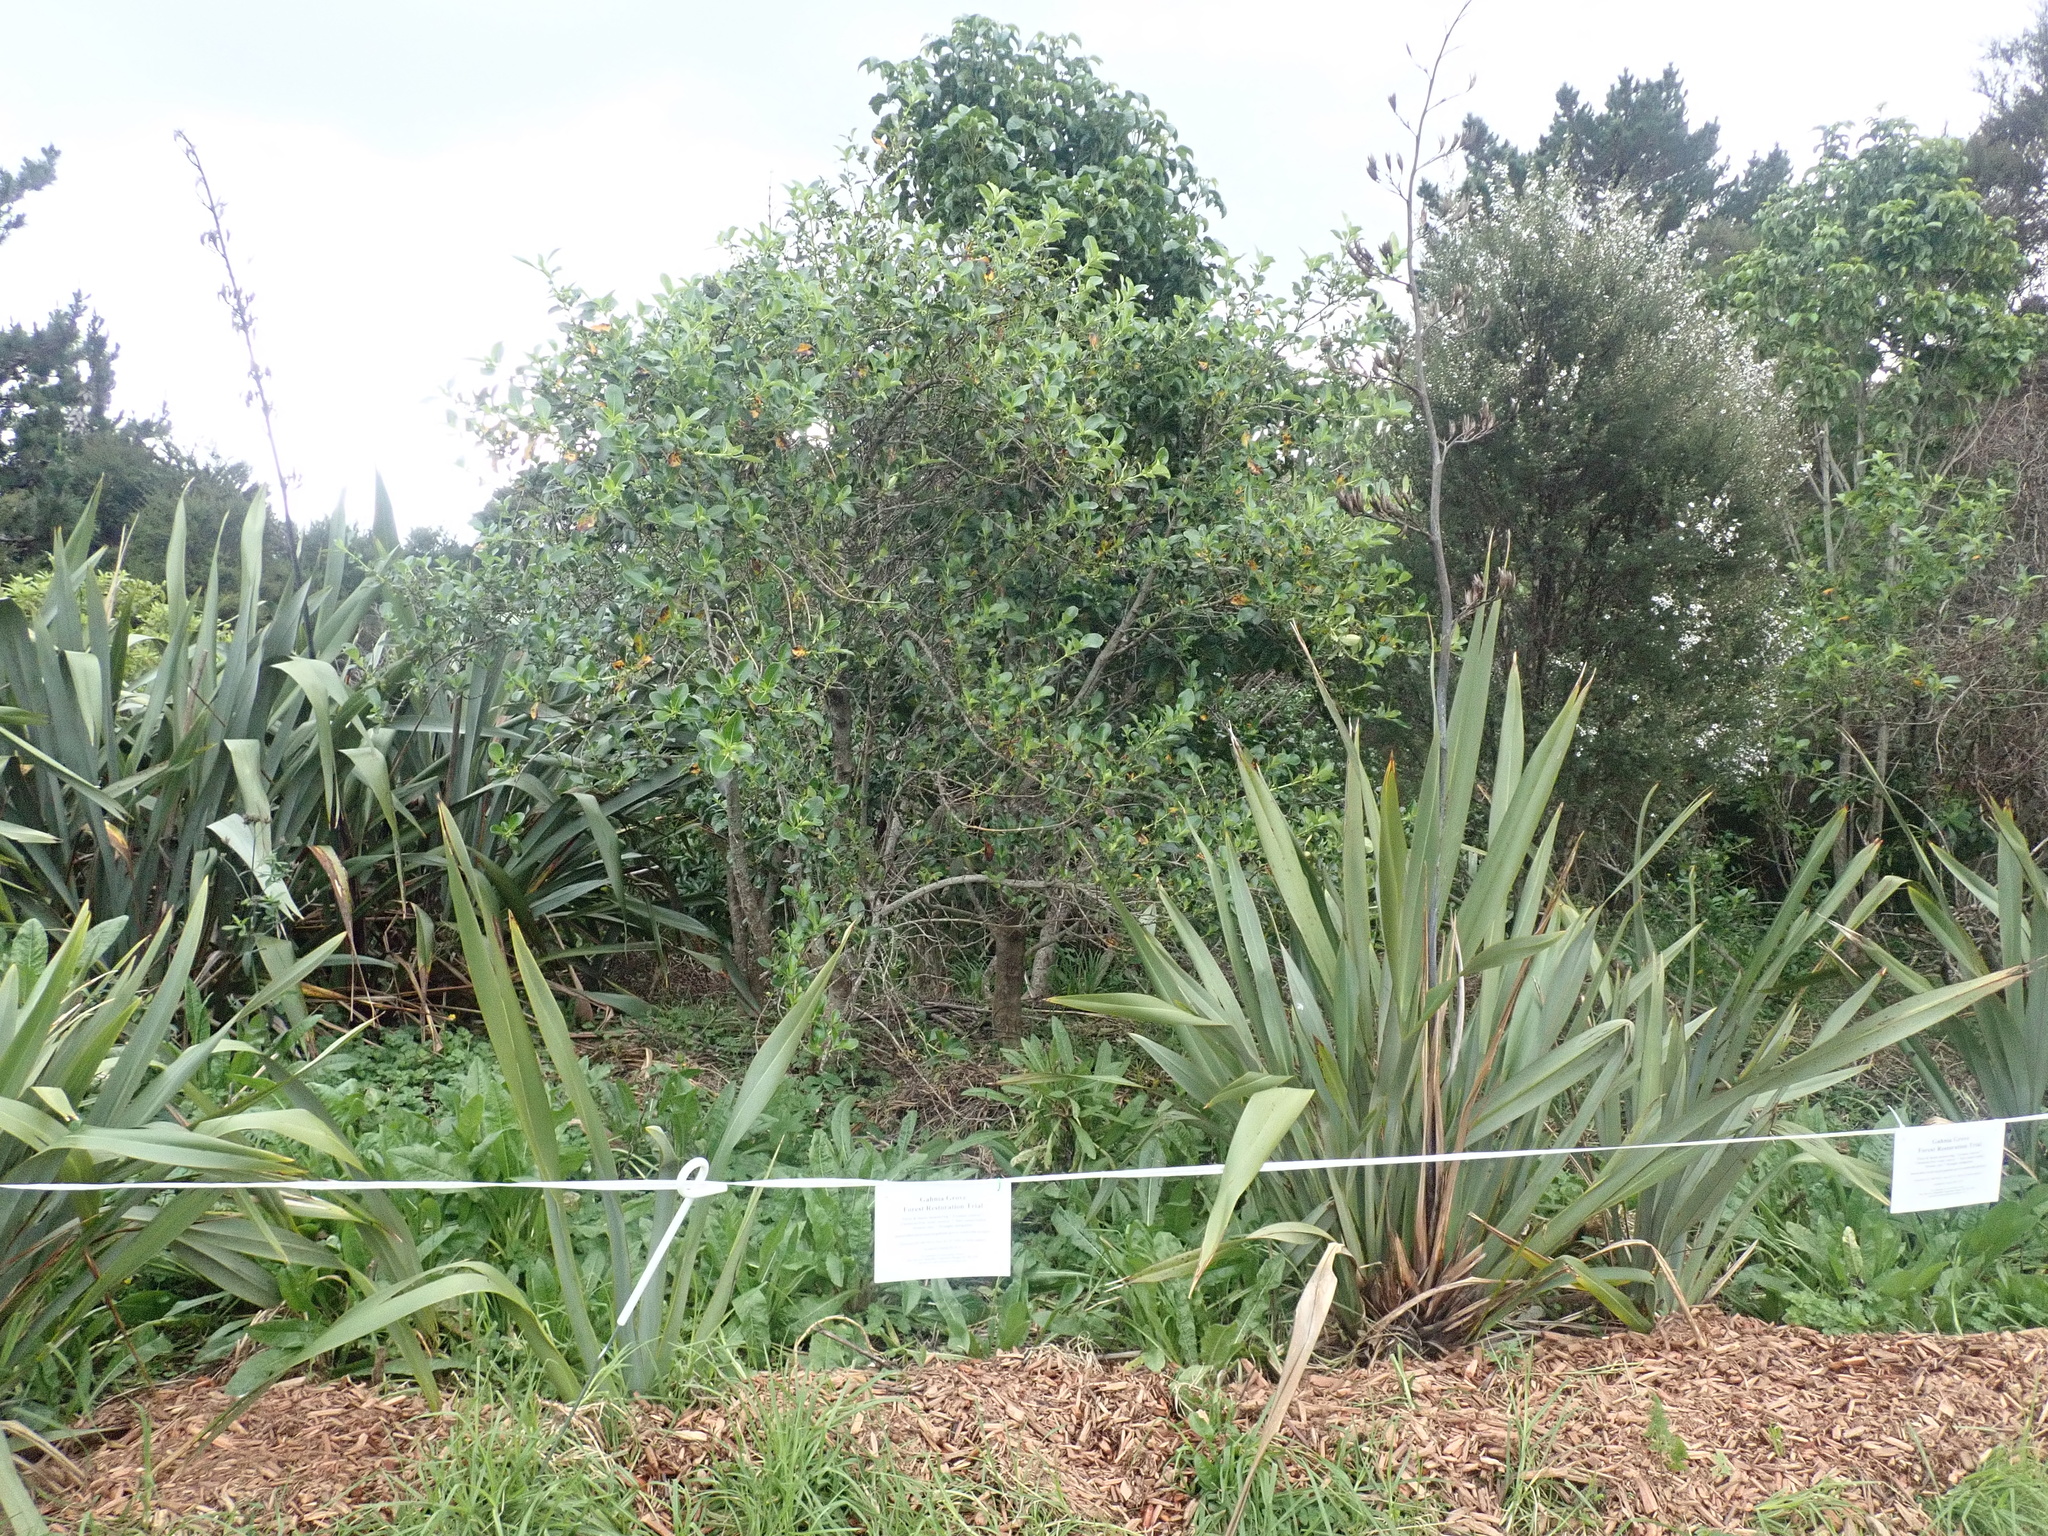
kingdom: Plantae
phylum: Tracheophyta
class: Magnoliopsida
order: Gentianales
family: Rubiaceae
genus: Coprosma
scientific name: Coprosma robusta
